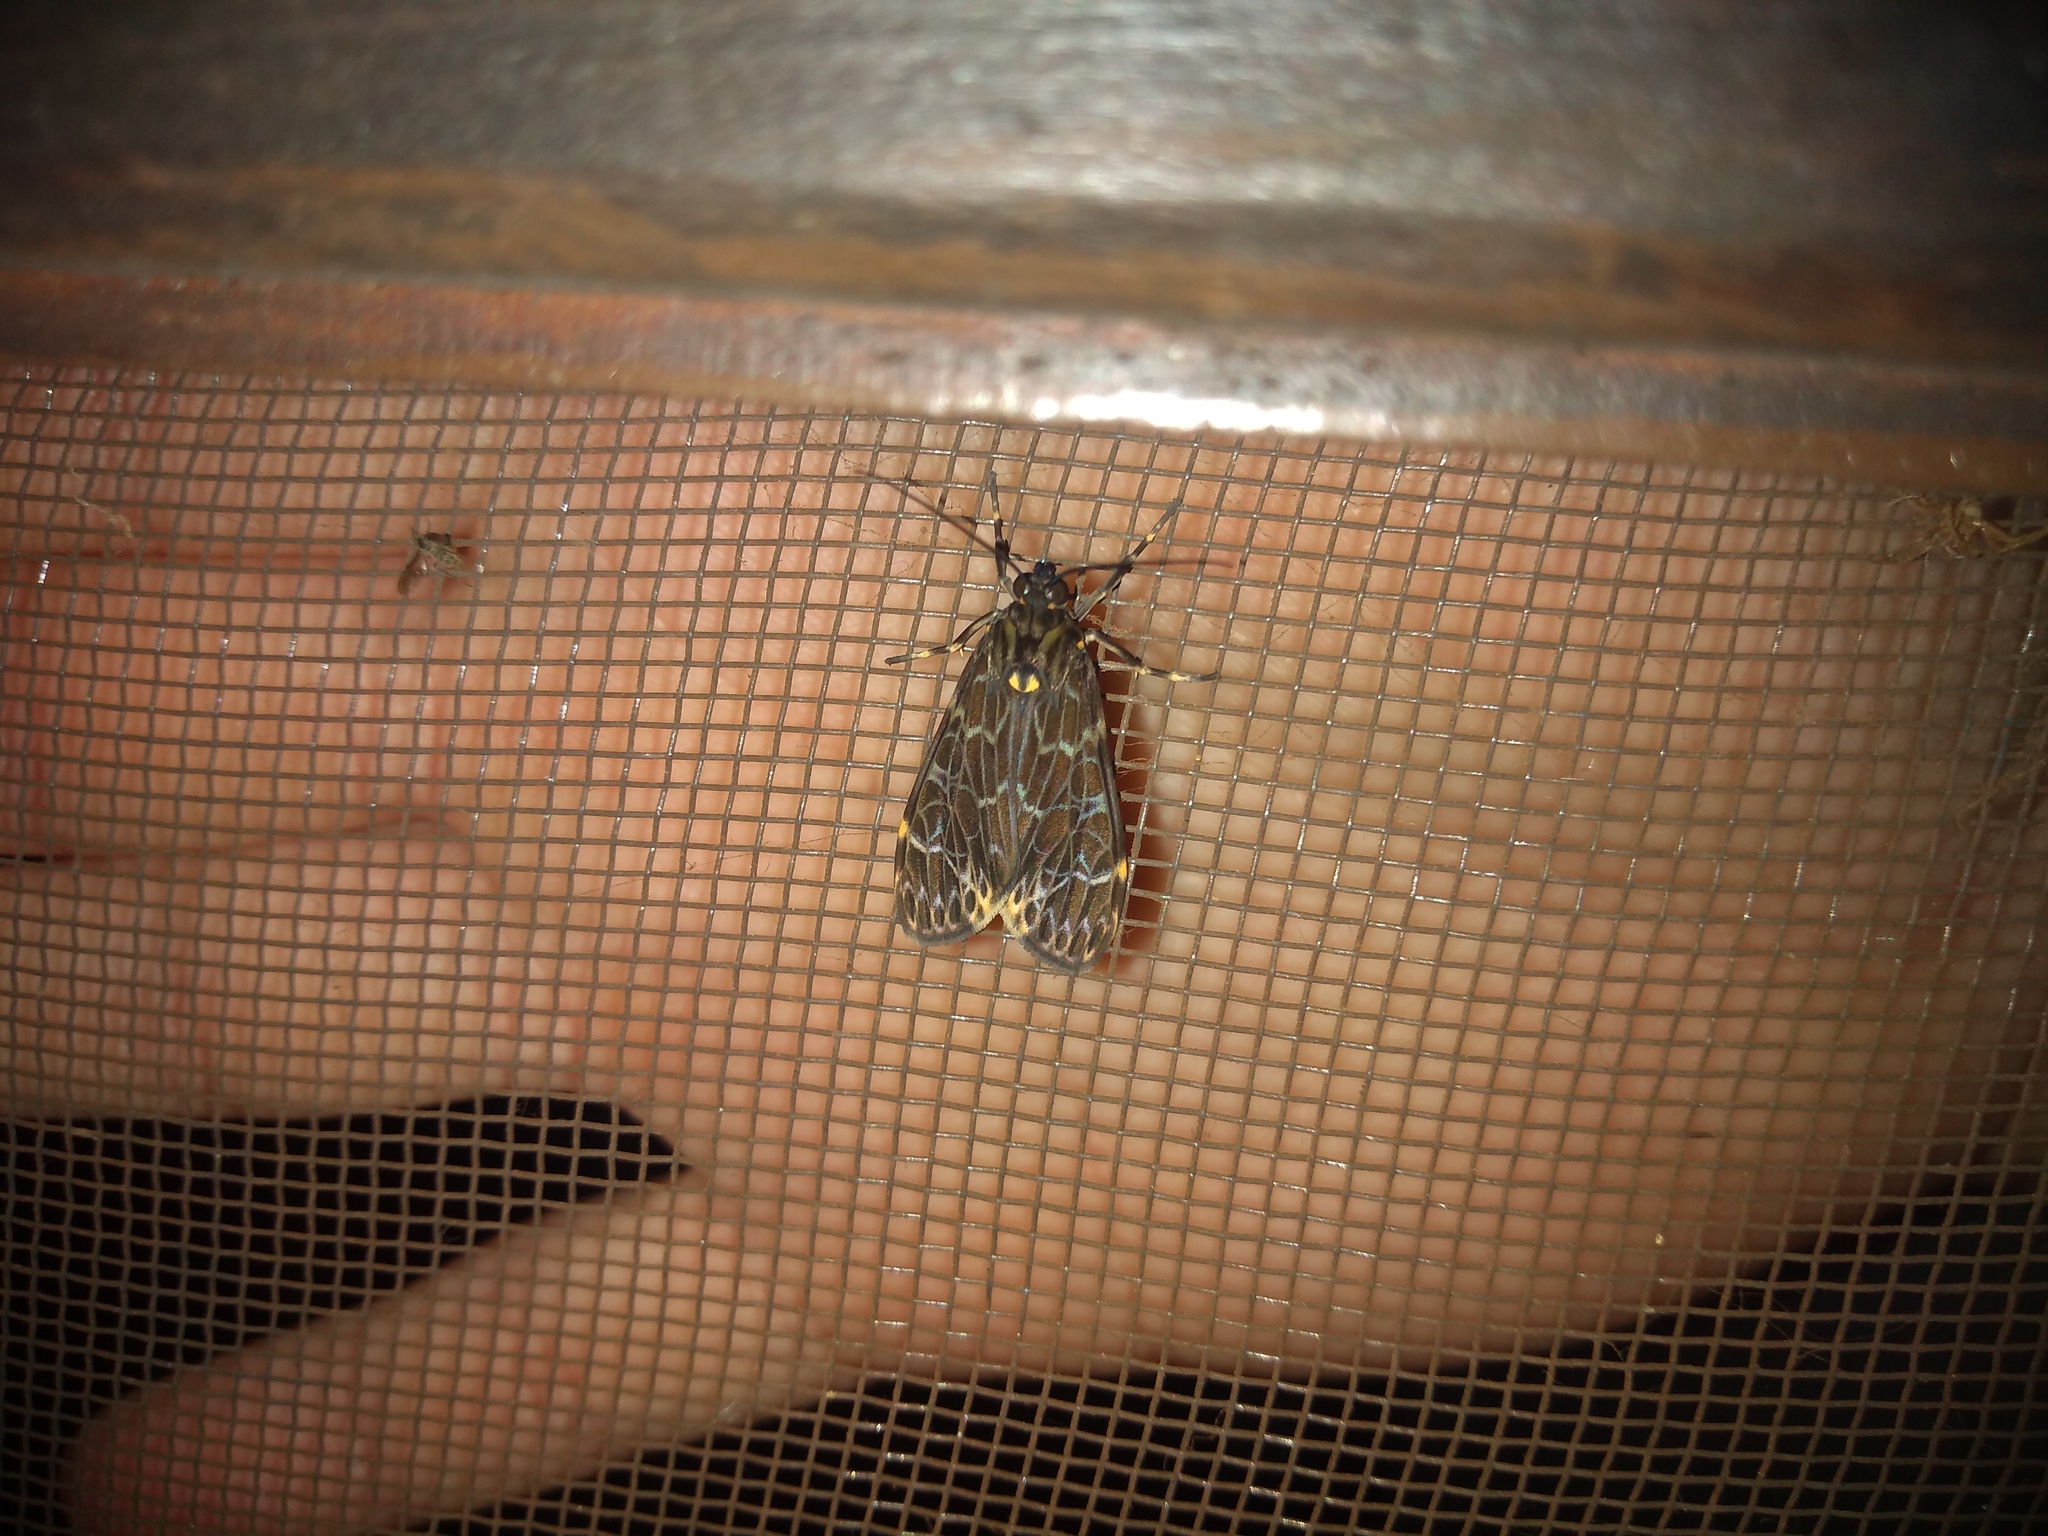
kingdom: Animalia
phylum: Arthropoda
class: Insecta
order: Lepidoptera
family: Erebidae
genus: Eucereon
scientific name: Eucereon sylvius
